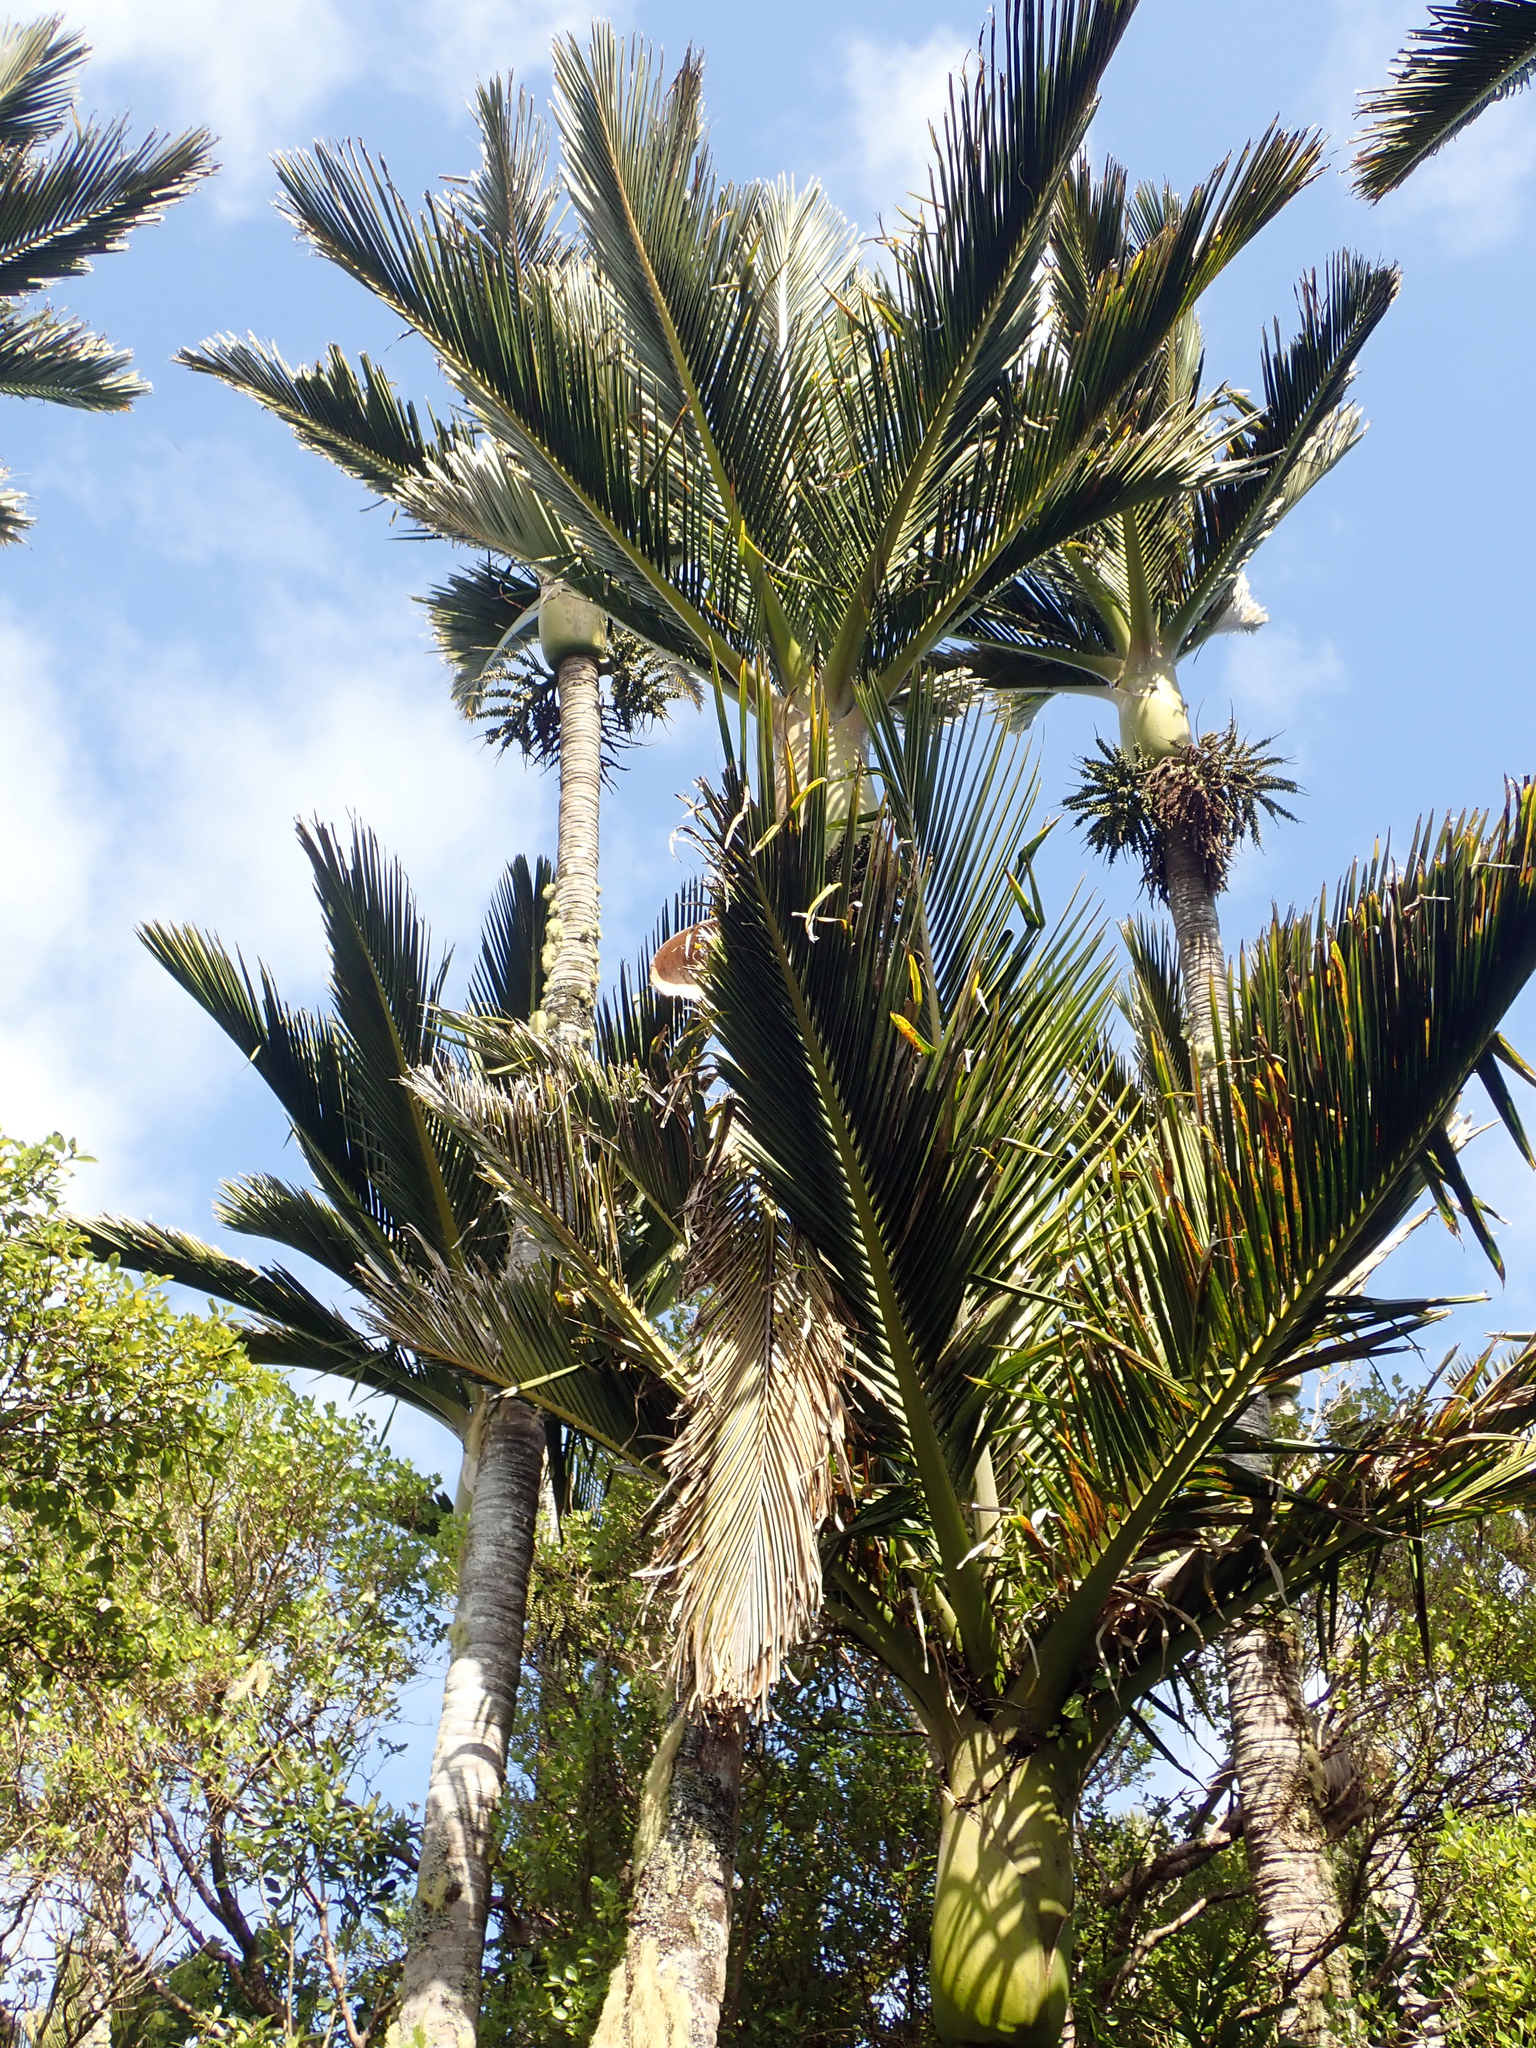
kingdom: Plantae
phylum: Tracheophyta
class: Liliopsida
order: Arecales
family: Arecaceae
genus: Rhopalostylis
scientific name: Rhopalostylis sapida
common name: Feather-duster palm
